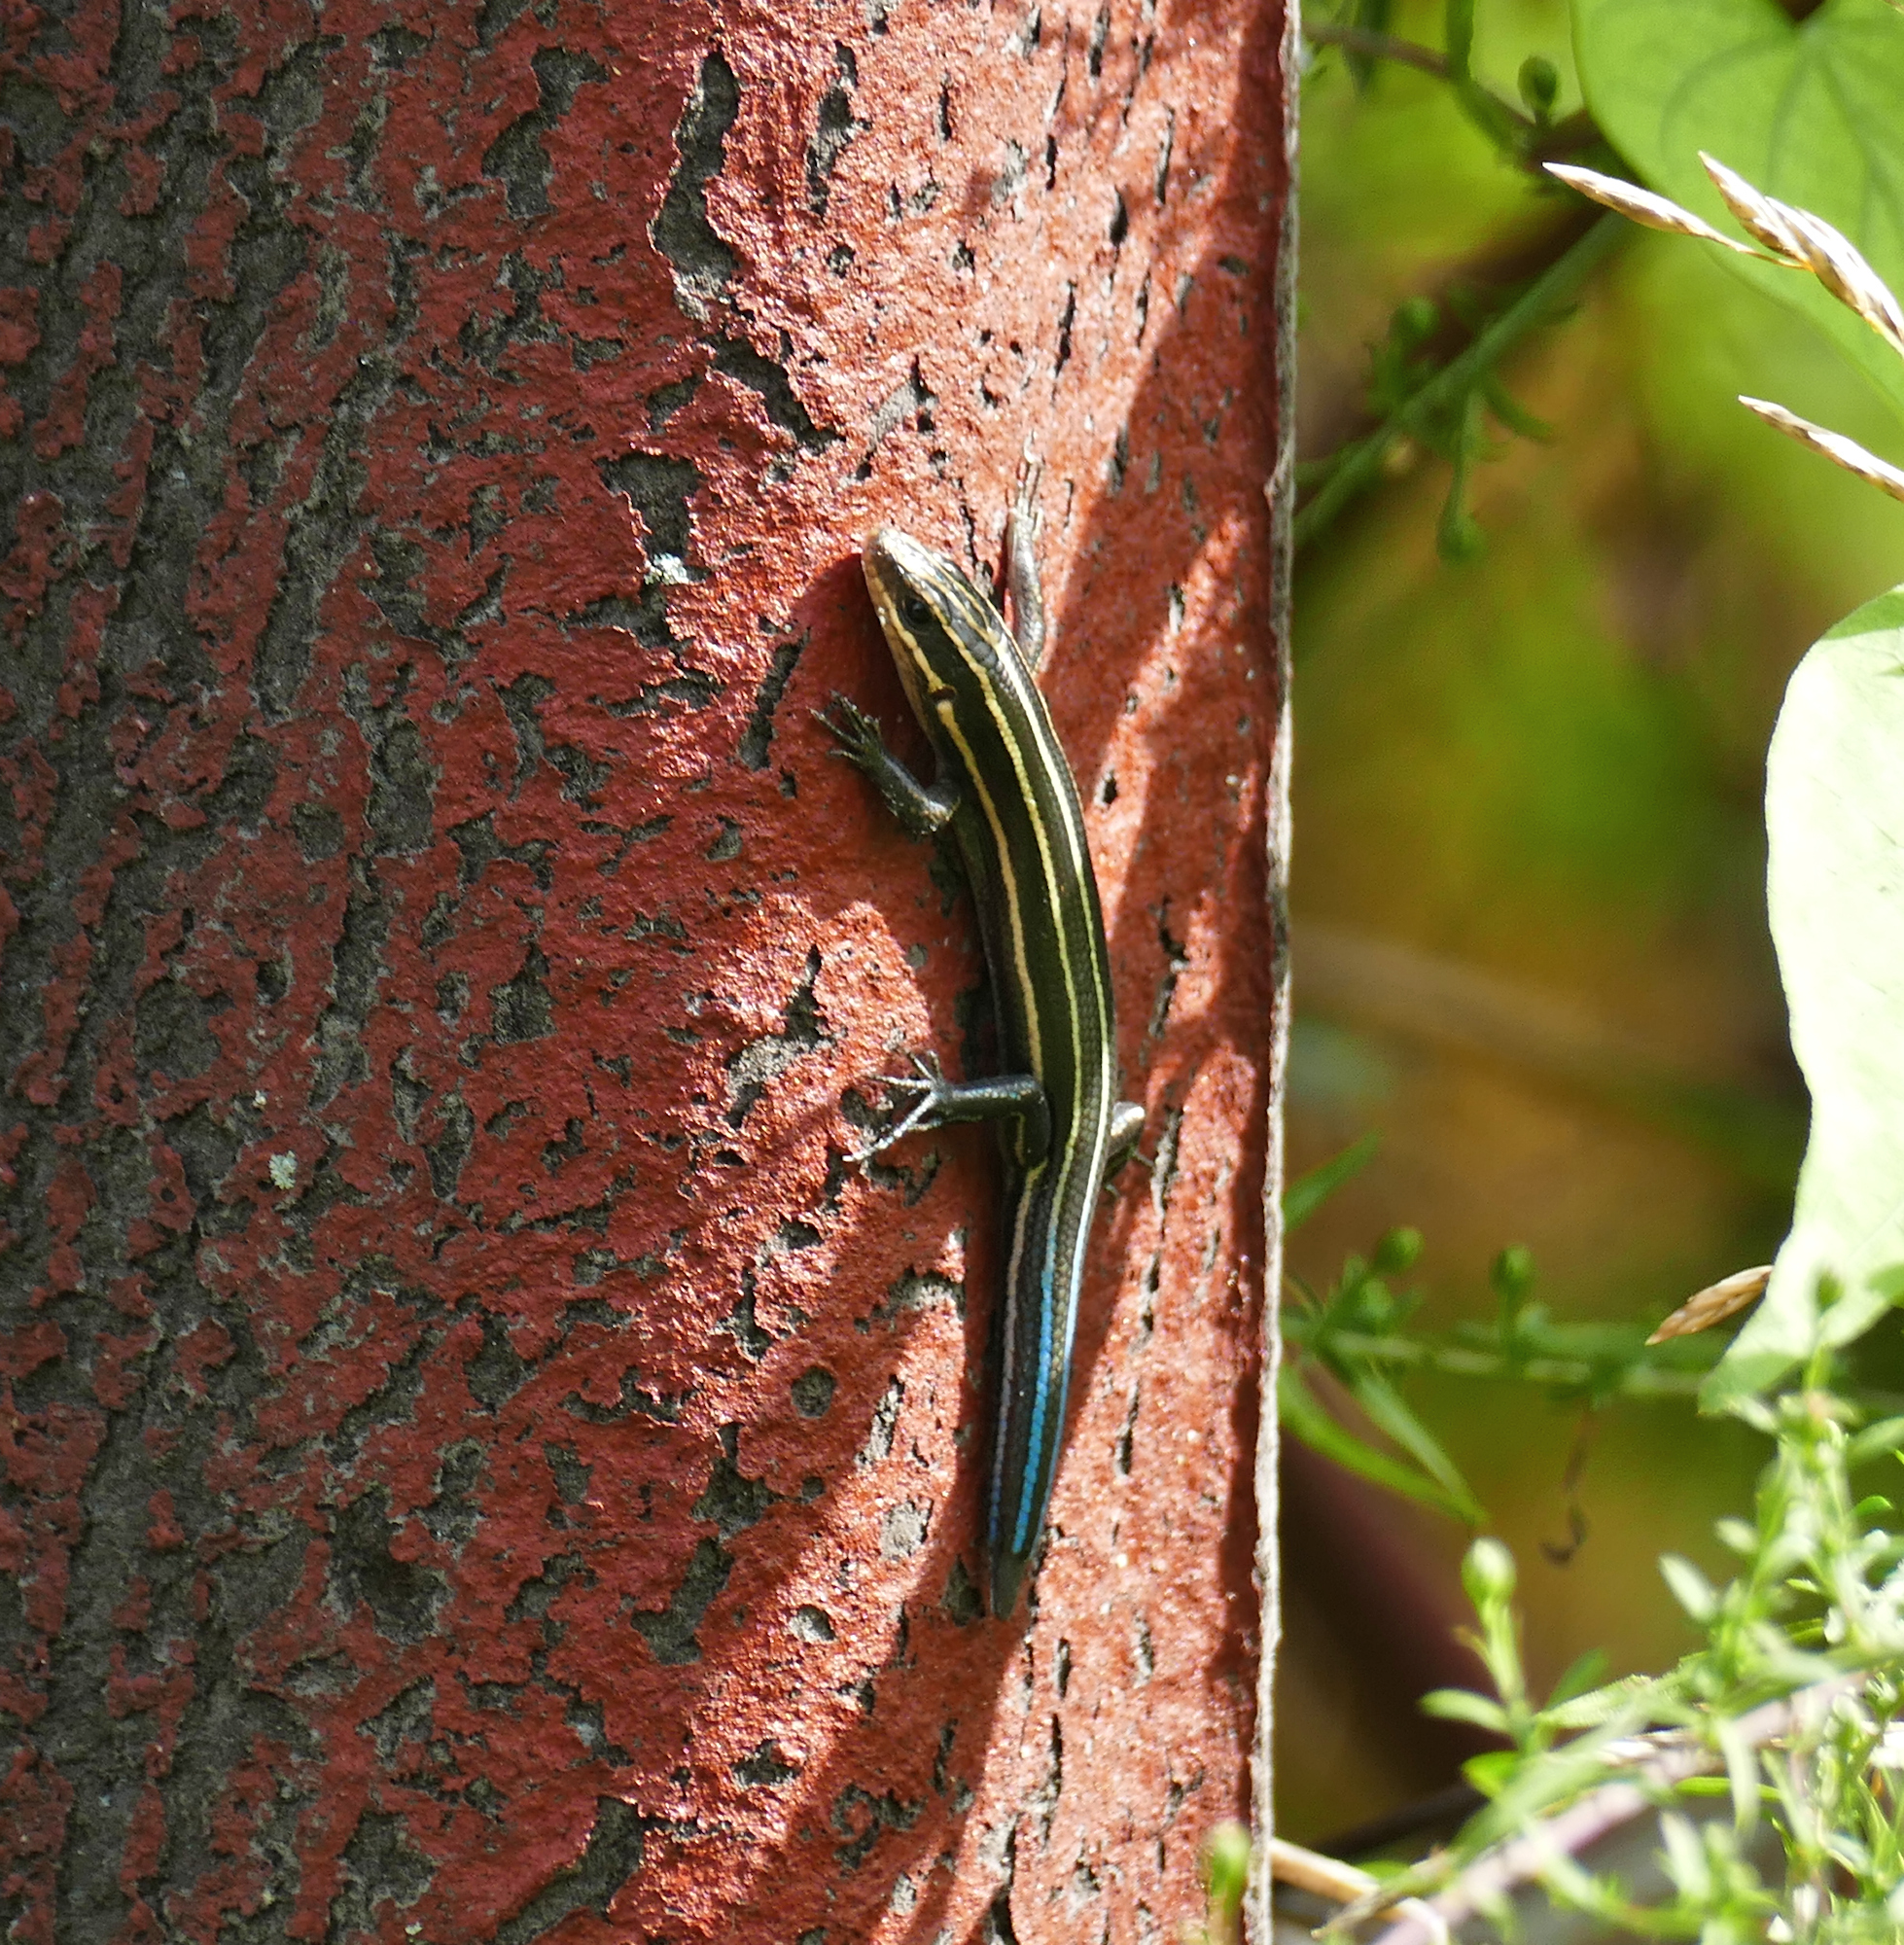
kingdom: Animalia
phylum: Chordata
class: Squamata
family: Scincidae
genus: Plestiodon
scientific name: Plestiodon fasciatus
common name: Five-lined skink
